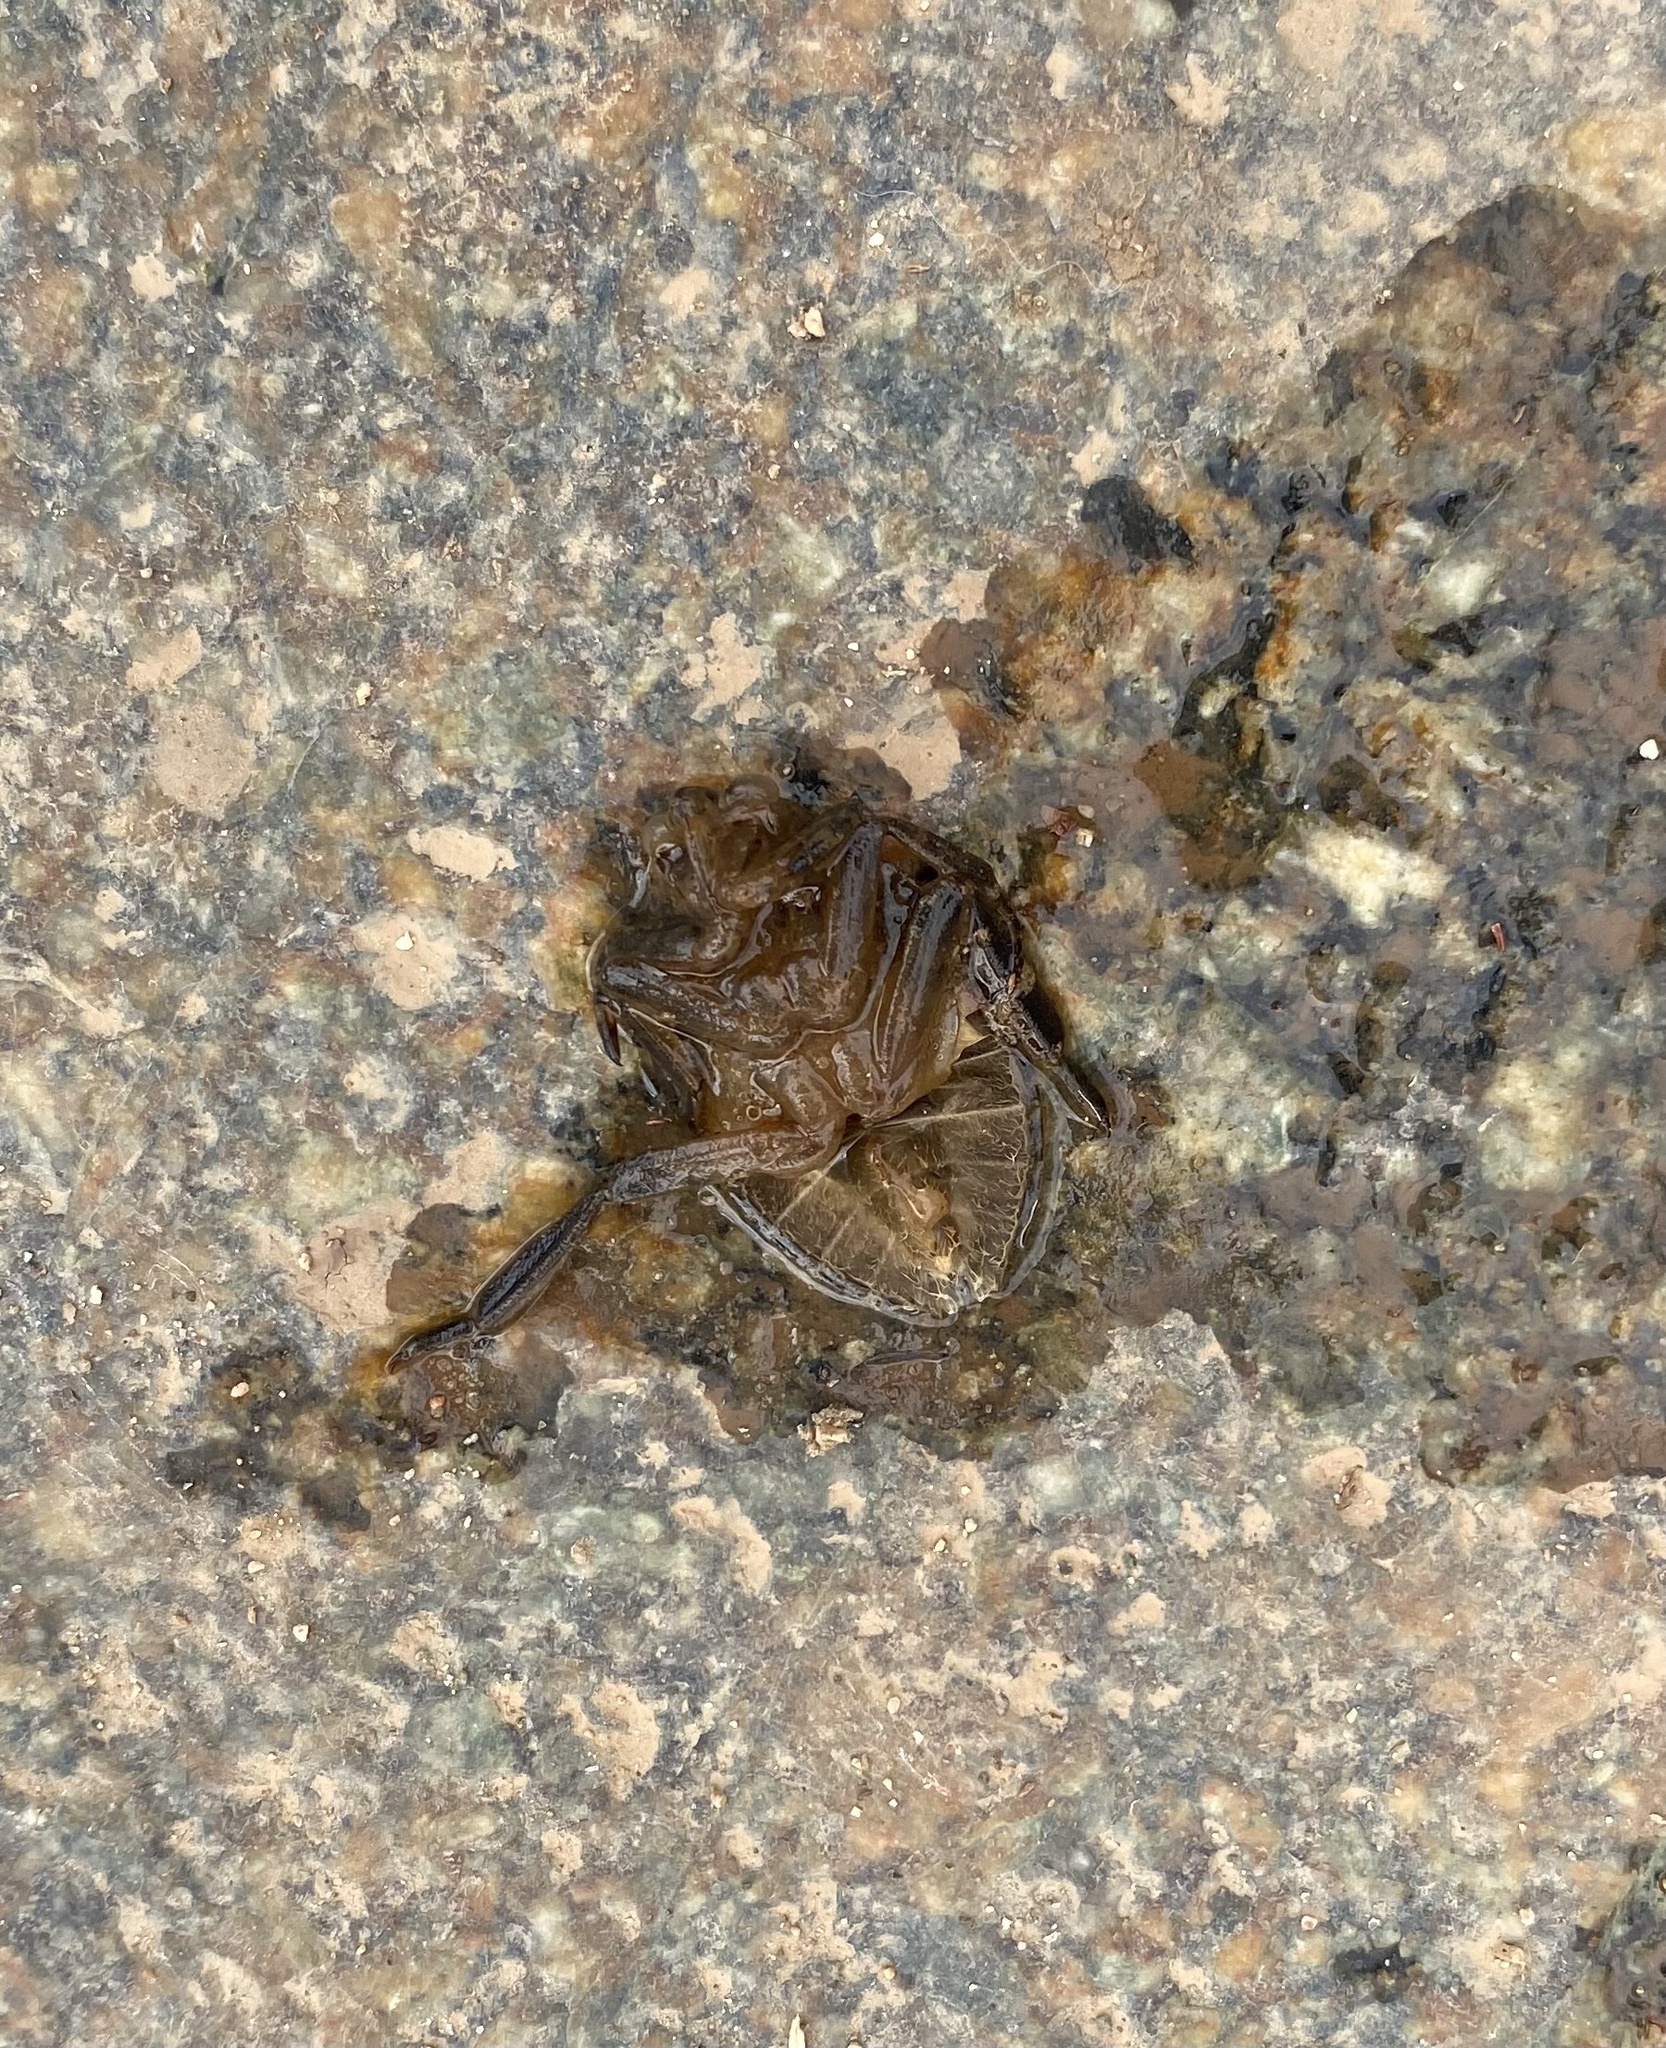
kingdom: Animalia
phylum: Arthropoda
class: Insecta
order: Hemiptera
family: Belostomatidae
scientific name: Belostomatidae
